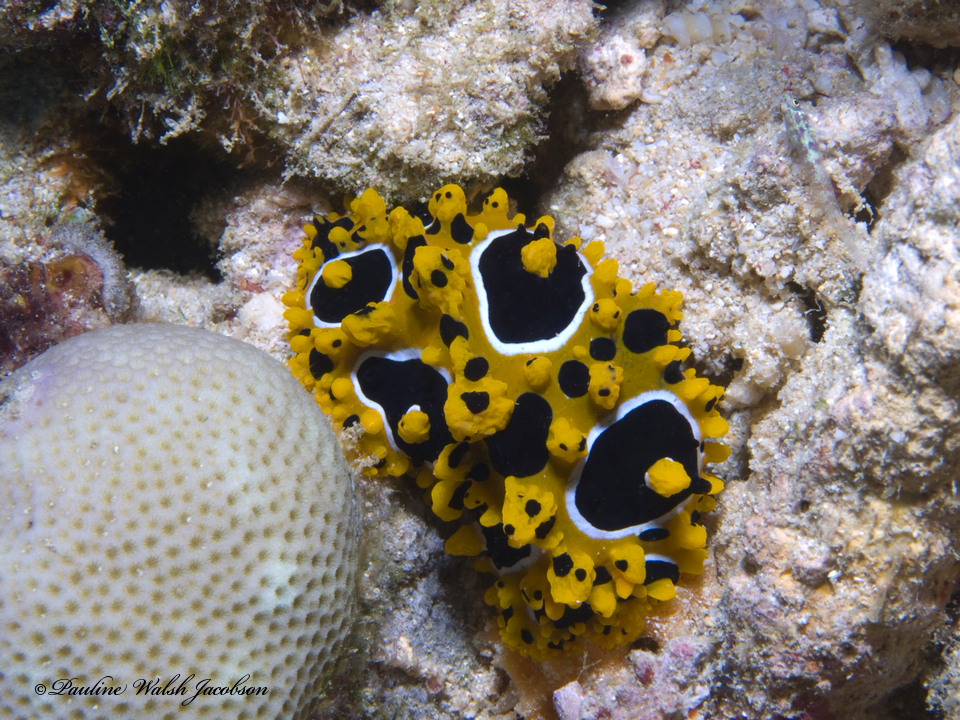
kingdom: Animalia
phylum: Mollusca
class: Gastropoda
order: Nudibranchia
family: Phyllidiidae
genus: Phyllidia
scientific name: Phyllidia ocellata
